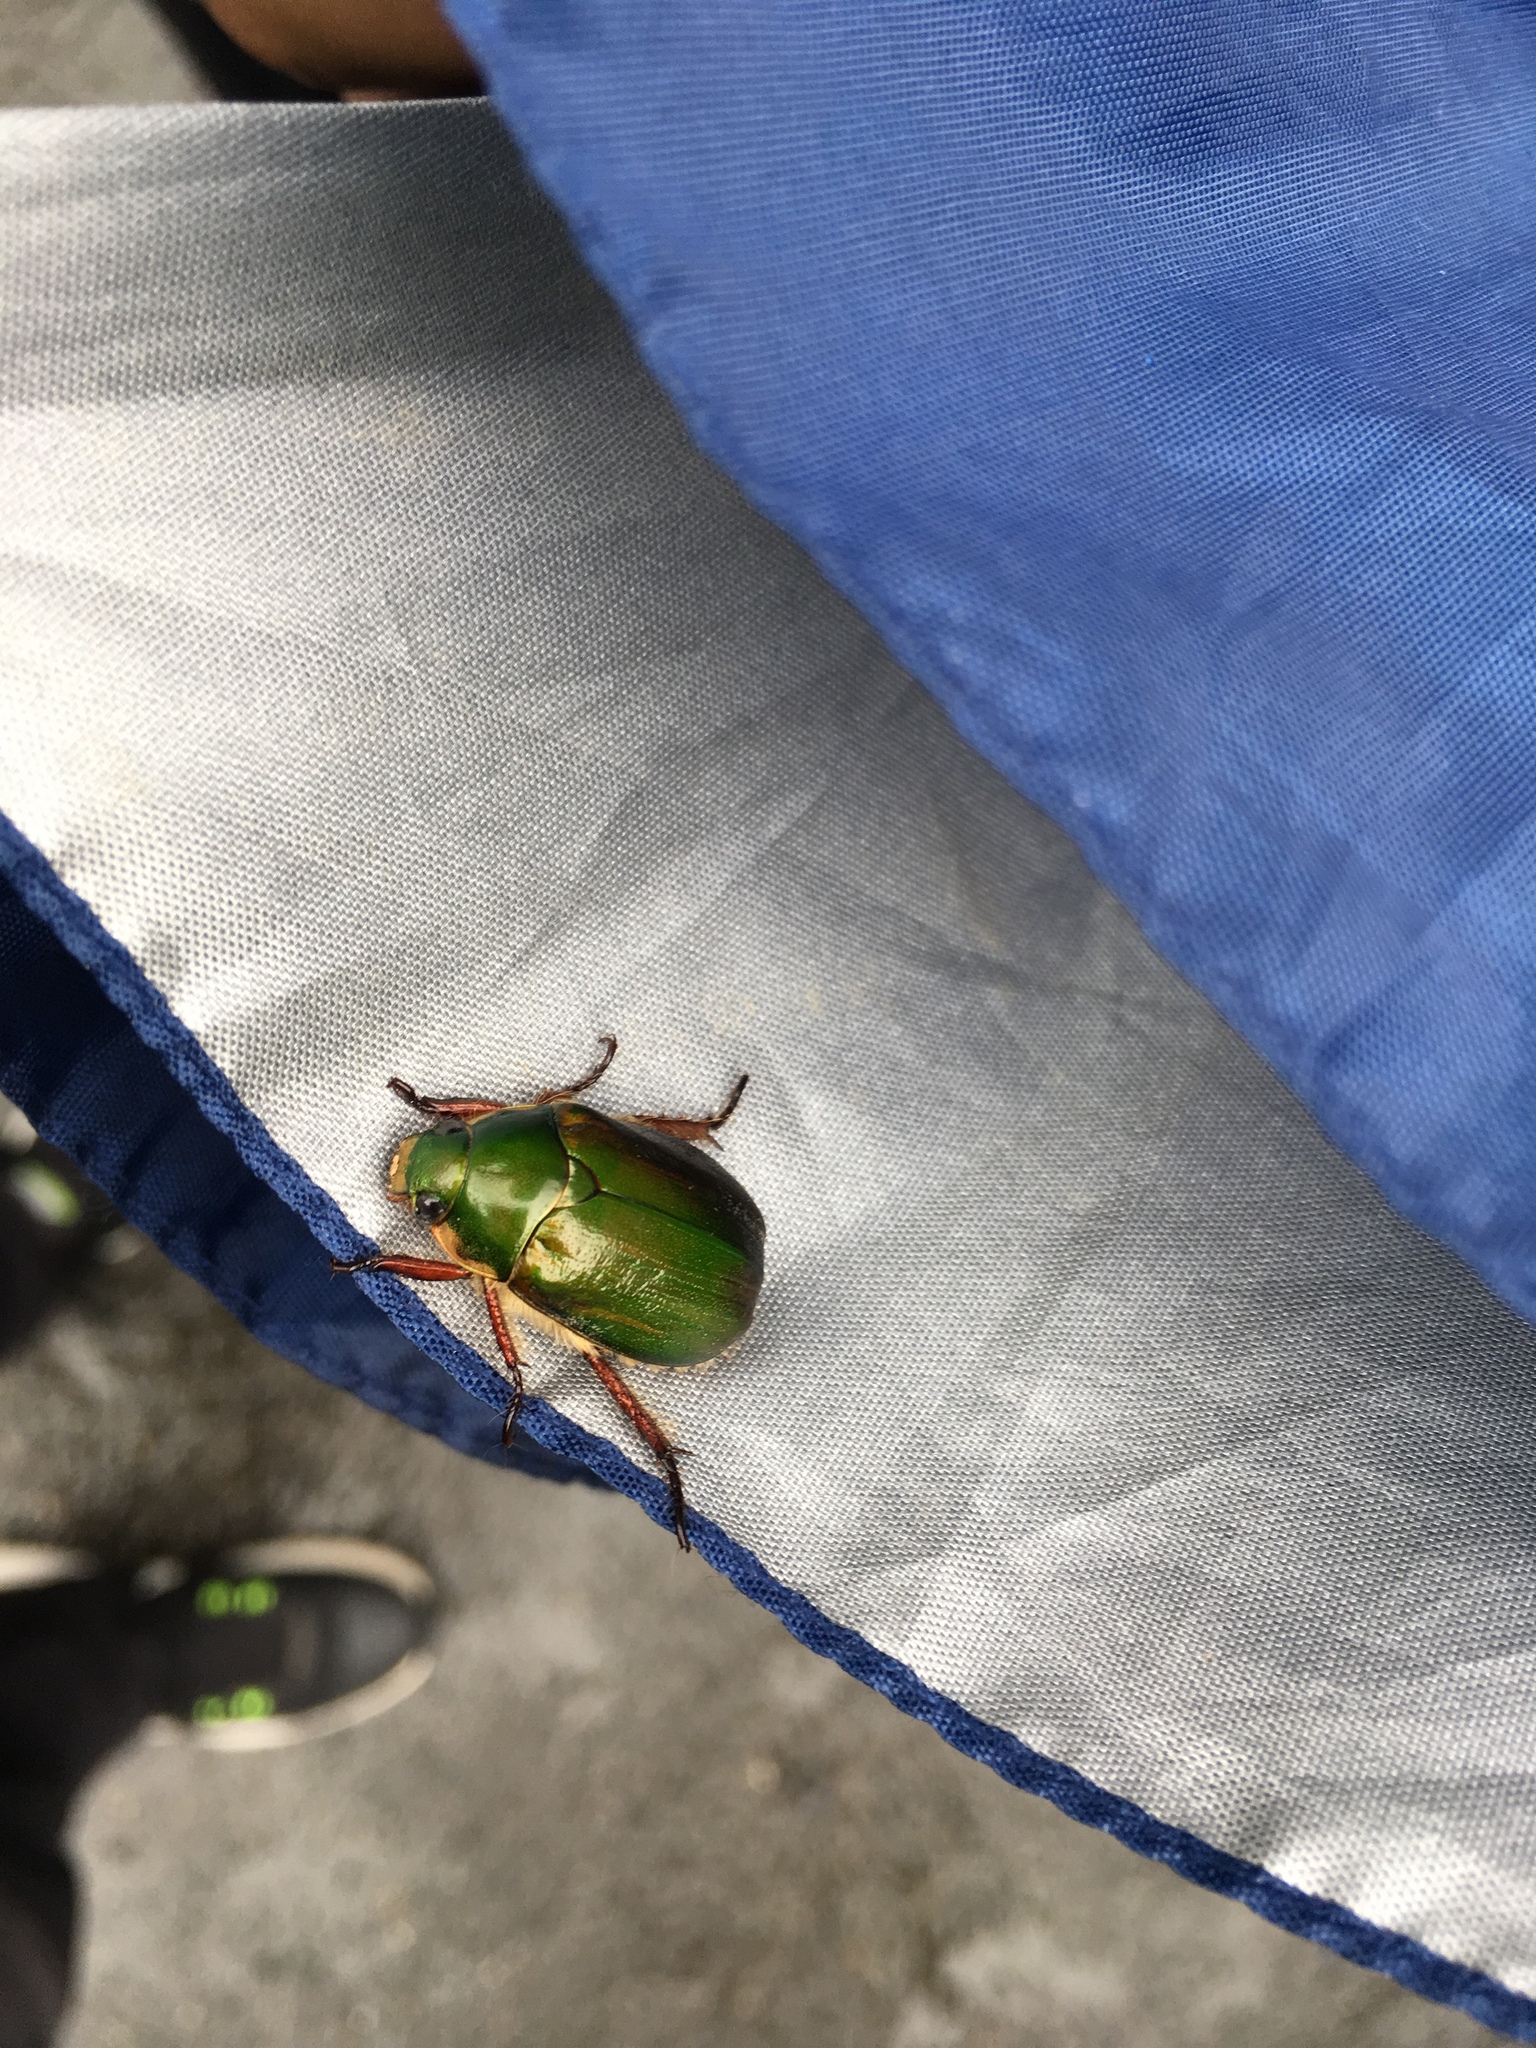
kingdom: Animalia
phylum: Arthropoda
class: Insecta
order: Coleoptera
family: Scarabaeidae
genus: Mimela
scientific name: Mimela passerinii
